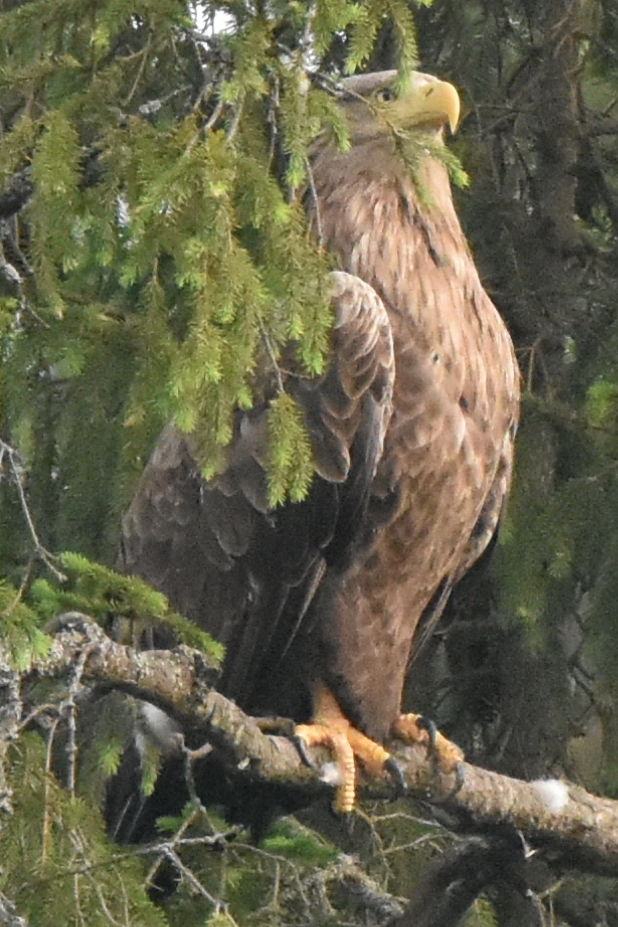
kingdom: Animalia
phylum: Chordata
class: Aves
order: Accipitriformes
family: Accipitridae
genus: Haliaeetus
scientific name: Haliaeetus albicilla
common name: White-tailed eagle
